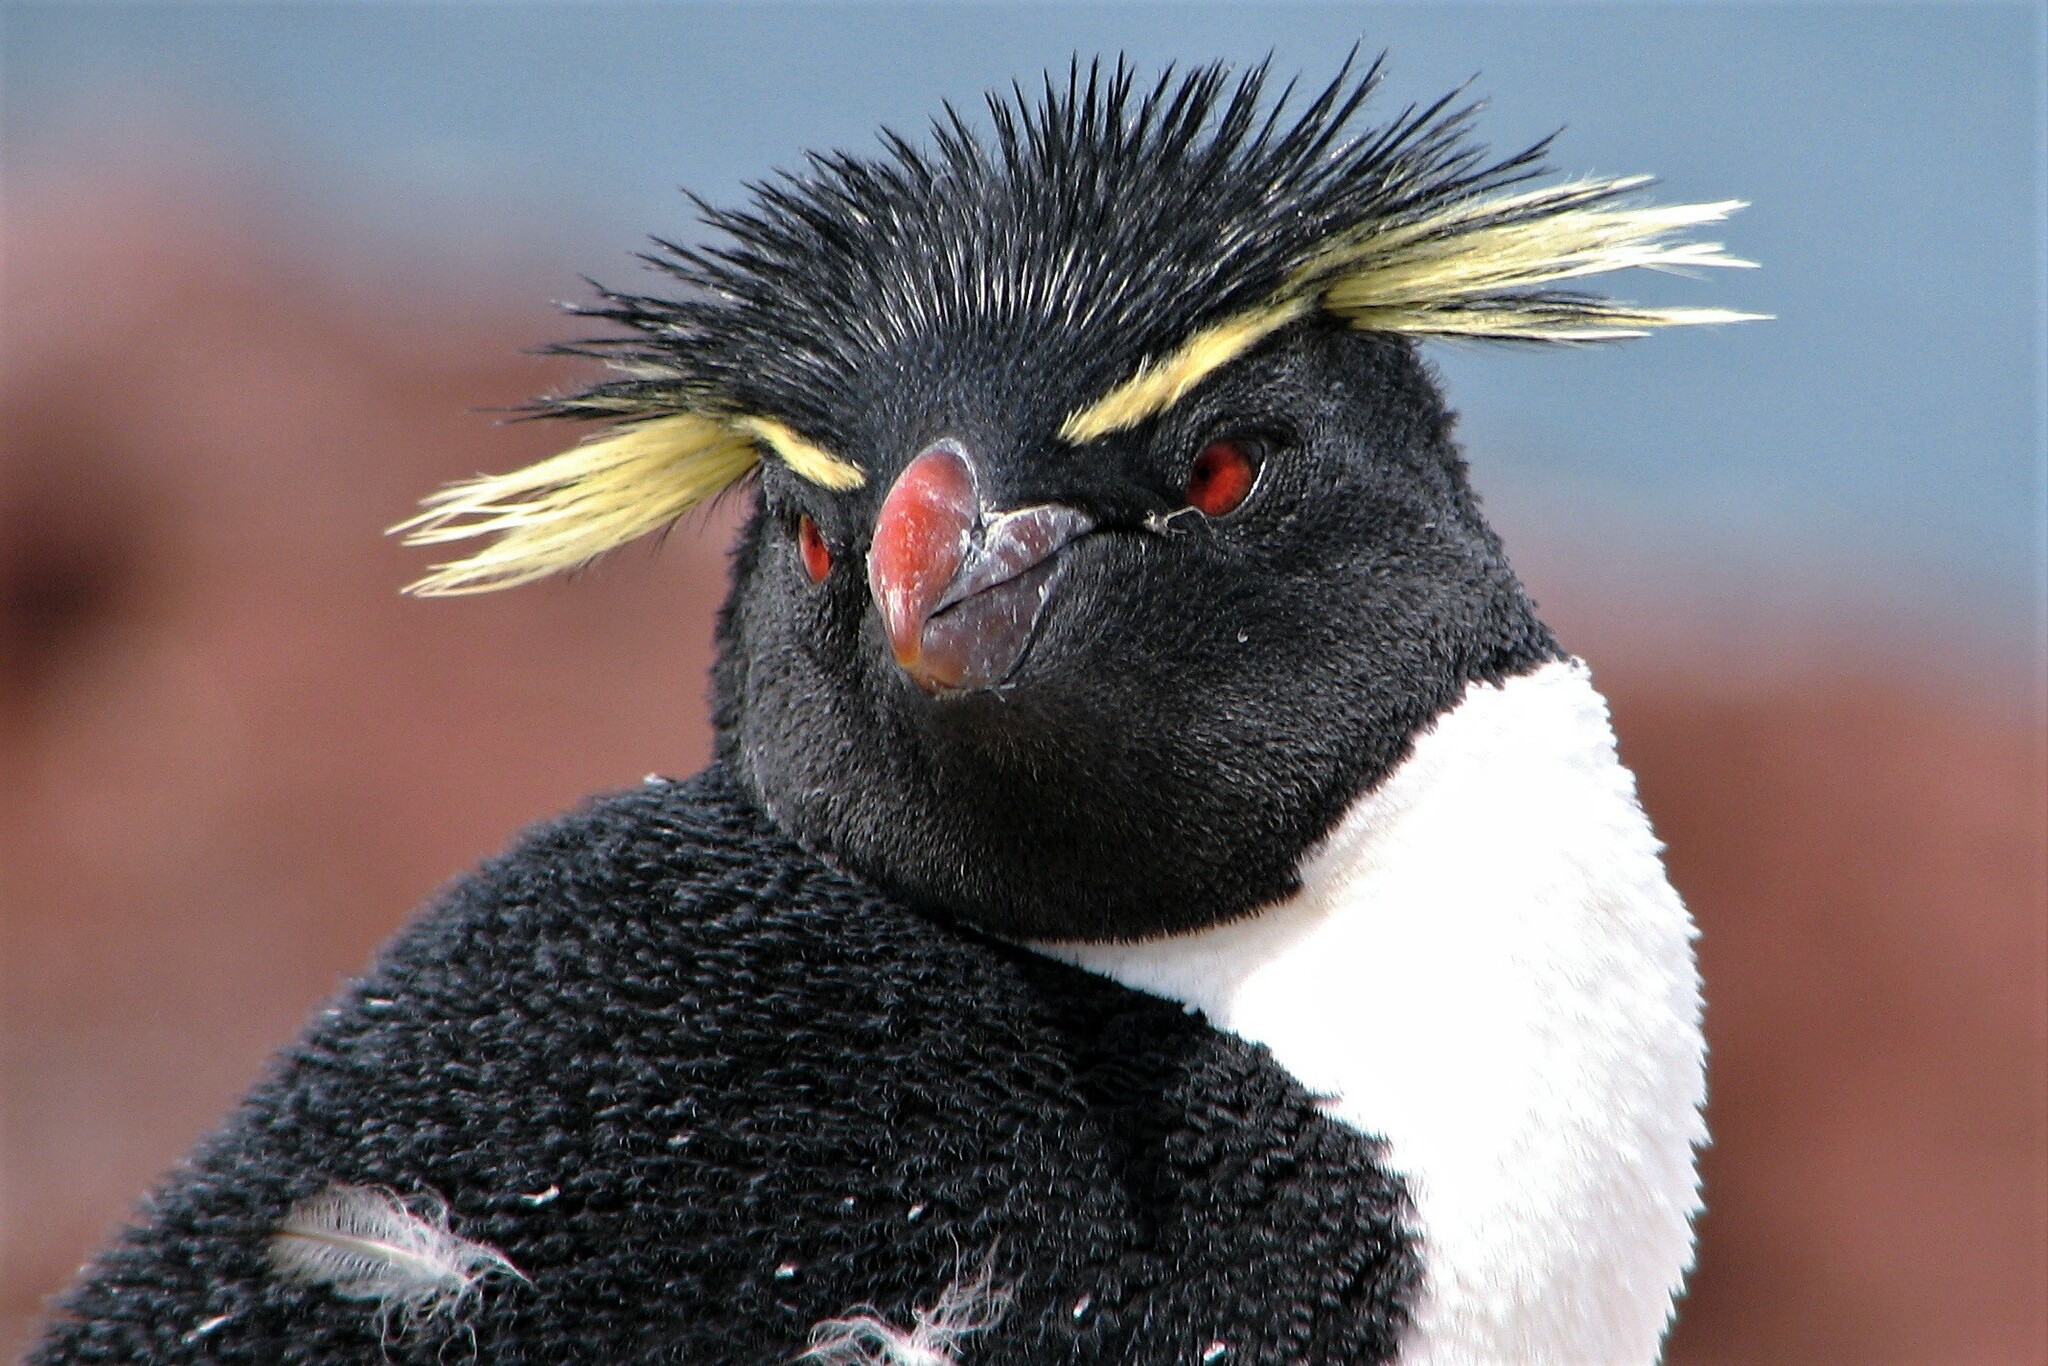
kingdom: Animalia
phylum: Chordata
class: Aves
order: Sphenisciformes
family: Spheniscidae
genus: Eudyptes
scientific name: Eudyptes chrysocome
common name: Southern rockhopper penguin
